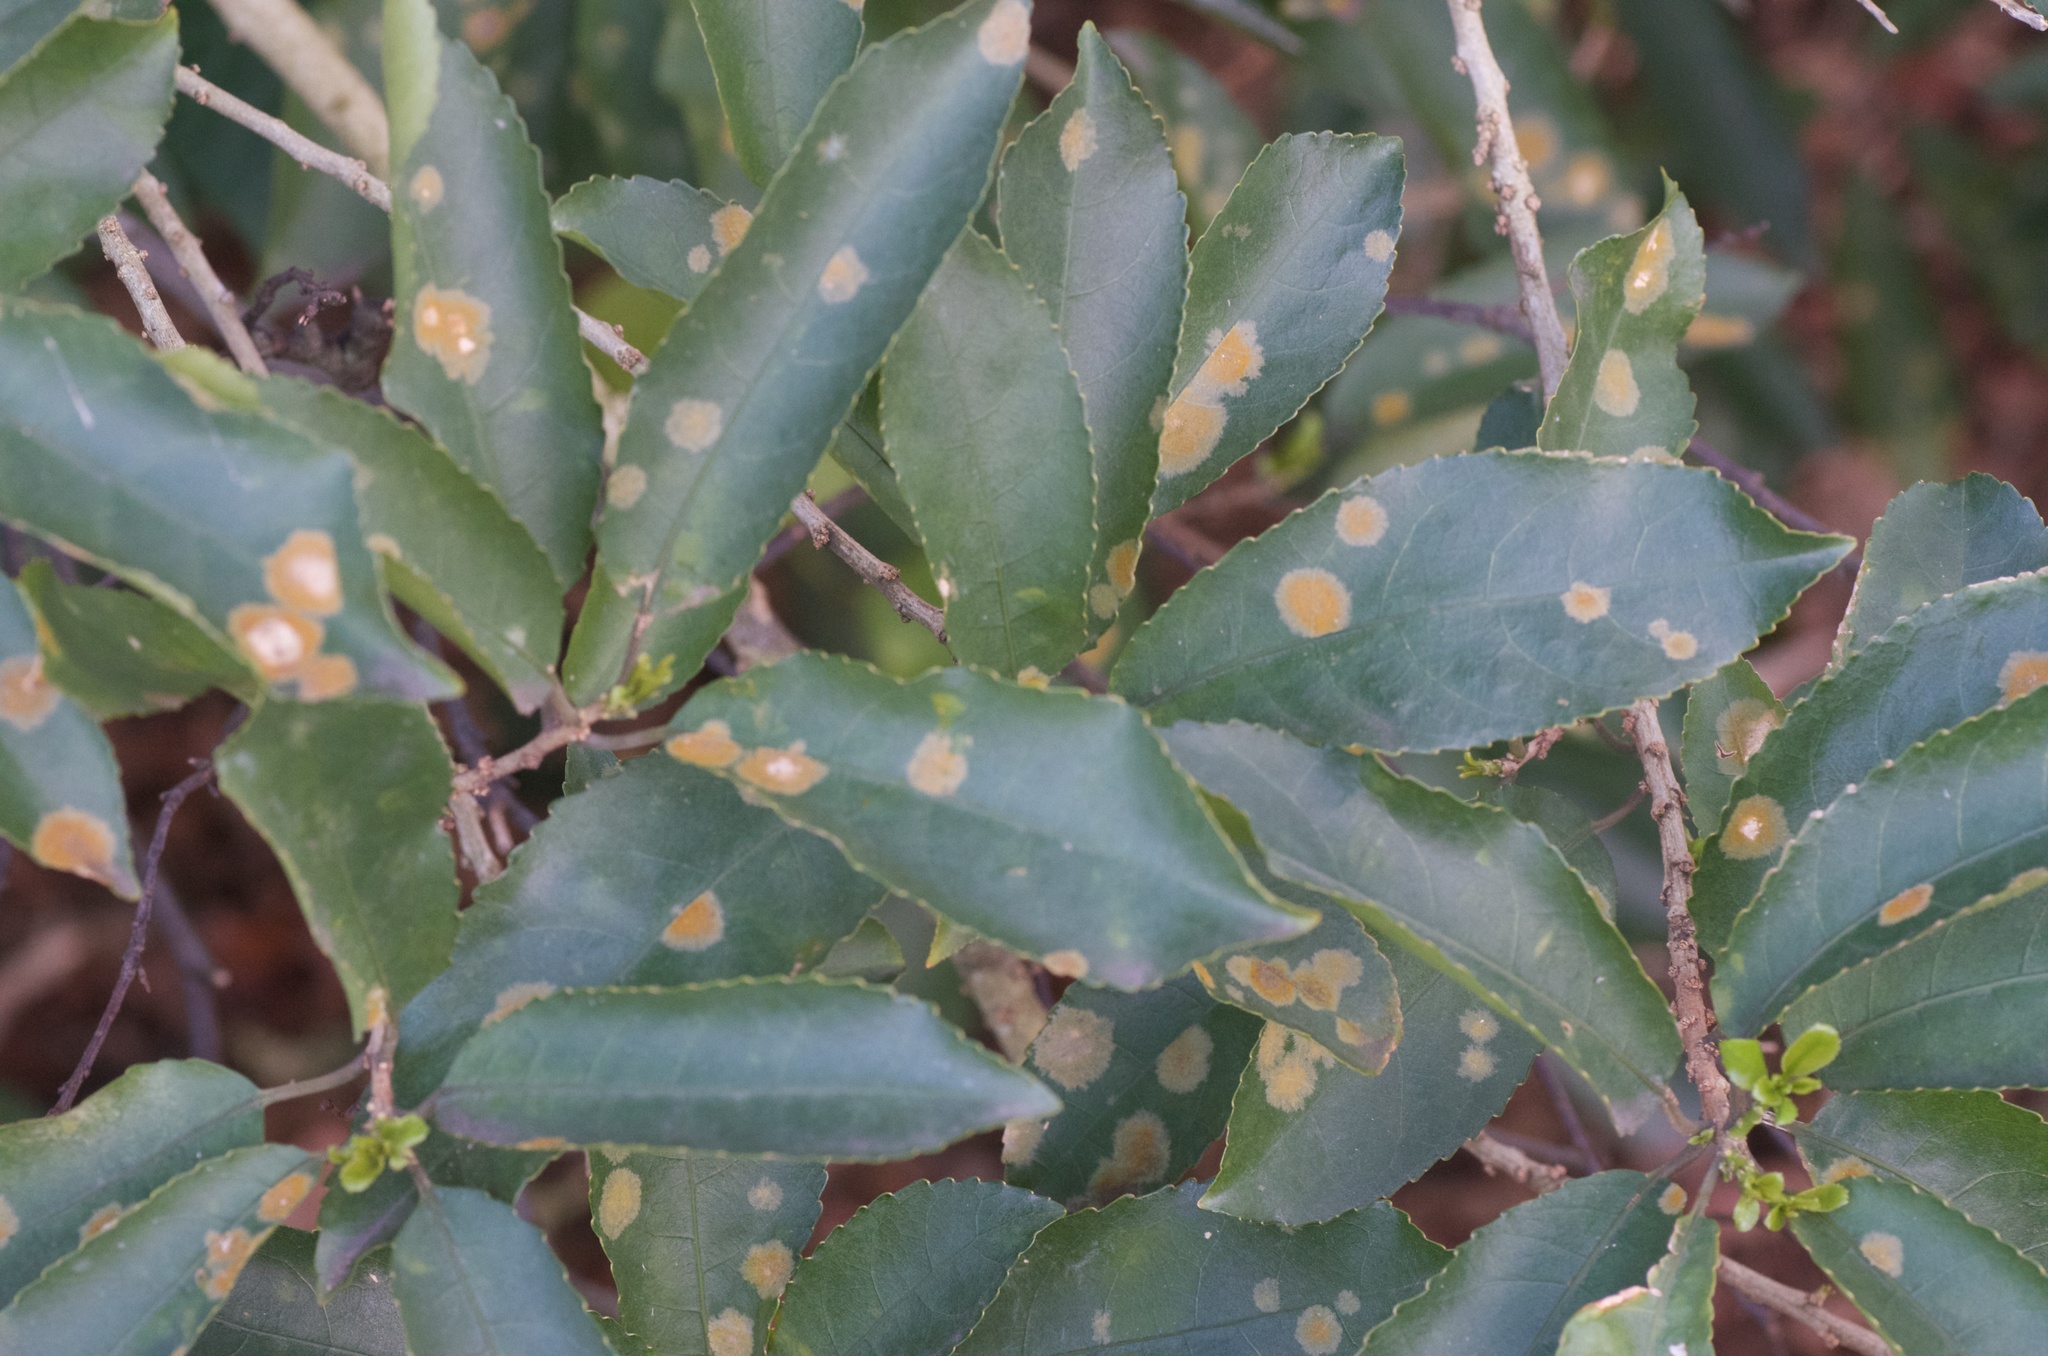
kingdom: Plantae
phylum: Chlorophyta
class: Ulvophyceae
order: Trentepohliales
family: Trentepohliaceae
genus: Cephaleuros
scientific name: Cephaleuros
